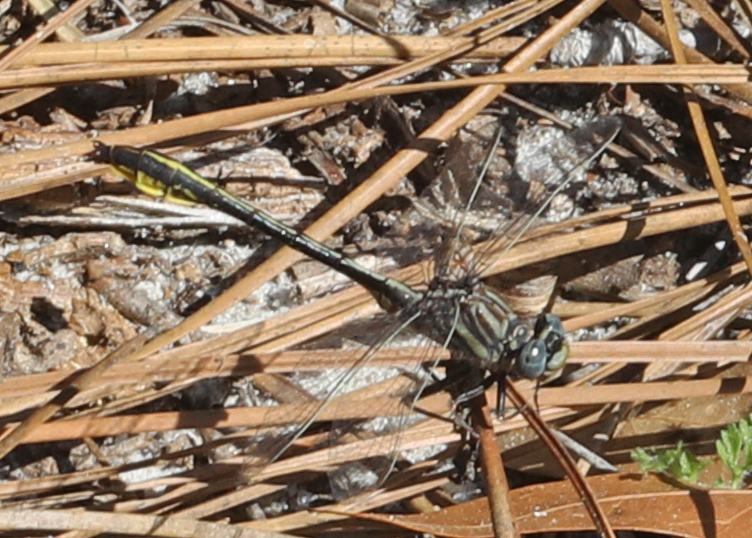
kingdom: Animalia
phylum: Arthropoda
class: Insecta
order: Odonata
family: Gomphidae
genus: Phanogomphus
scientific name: Phanogomphus cavillaris
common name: Sandhill clubtail
